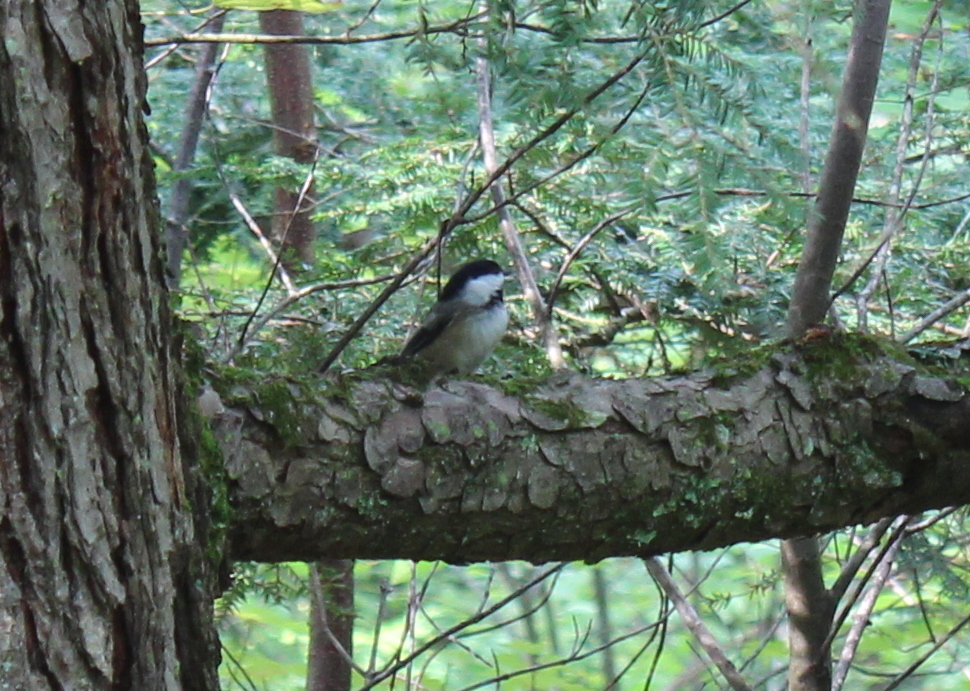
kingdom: Animalia
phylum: Chordata
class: Aves
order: Passeriformes
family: Paridae
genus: Poecile
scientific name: Poecile atricapillus
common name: Black-capped chickadee
